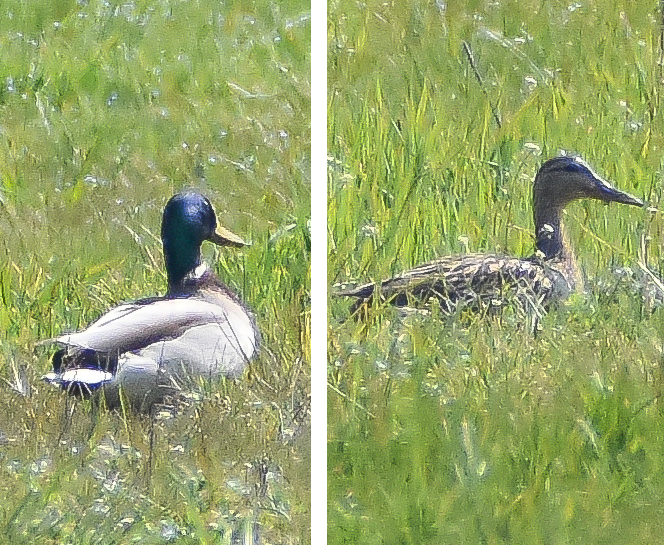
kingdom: Animalia
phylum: Chordata
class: Aves
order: Anseriformes
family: Anatidae
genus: Anas
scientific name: Anas platyrhynchos
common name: Mallard
